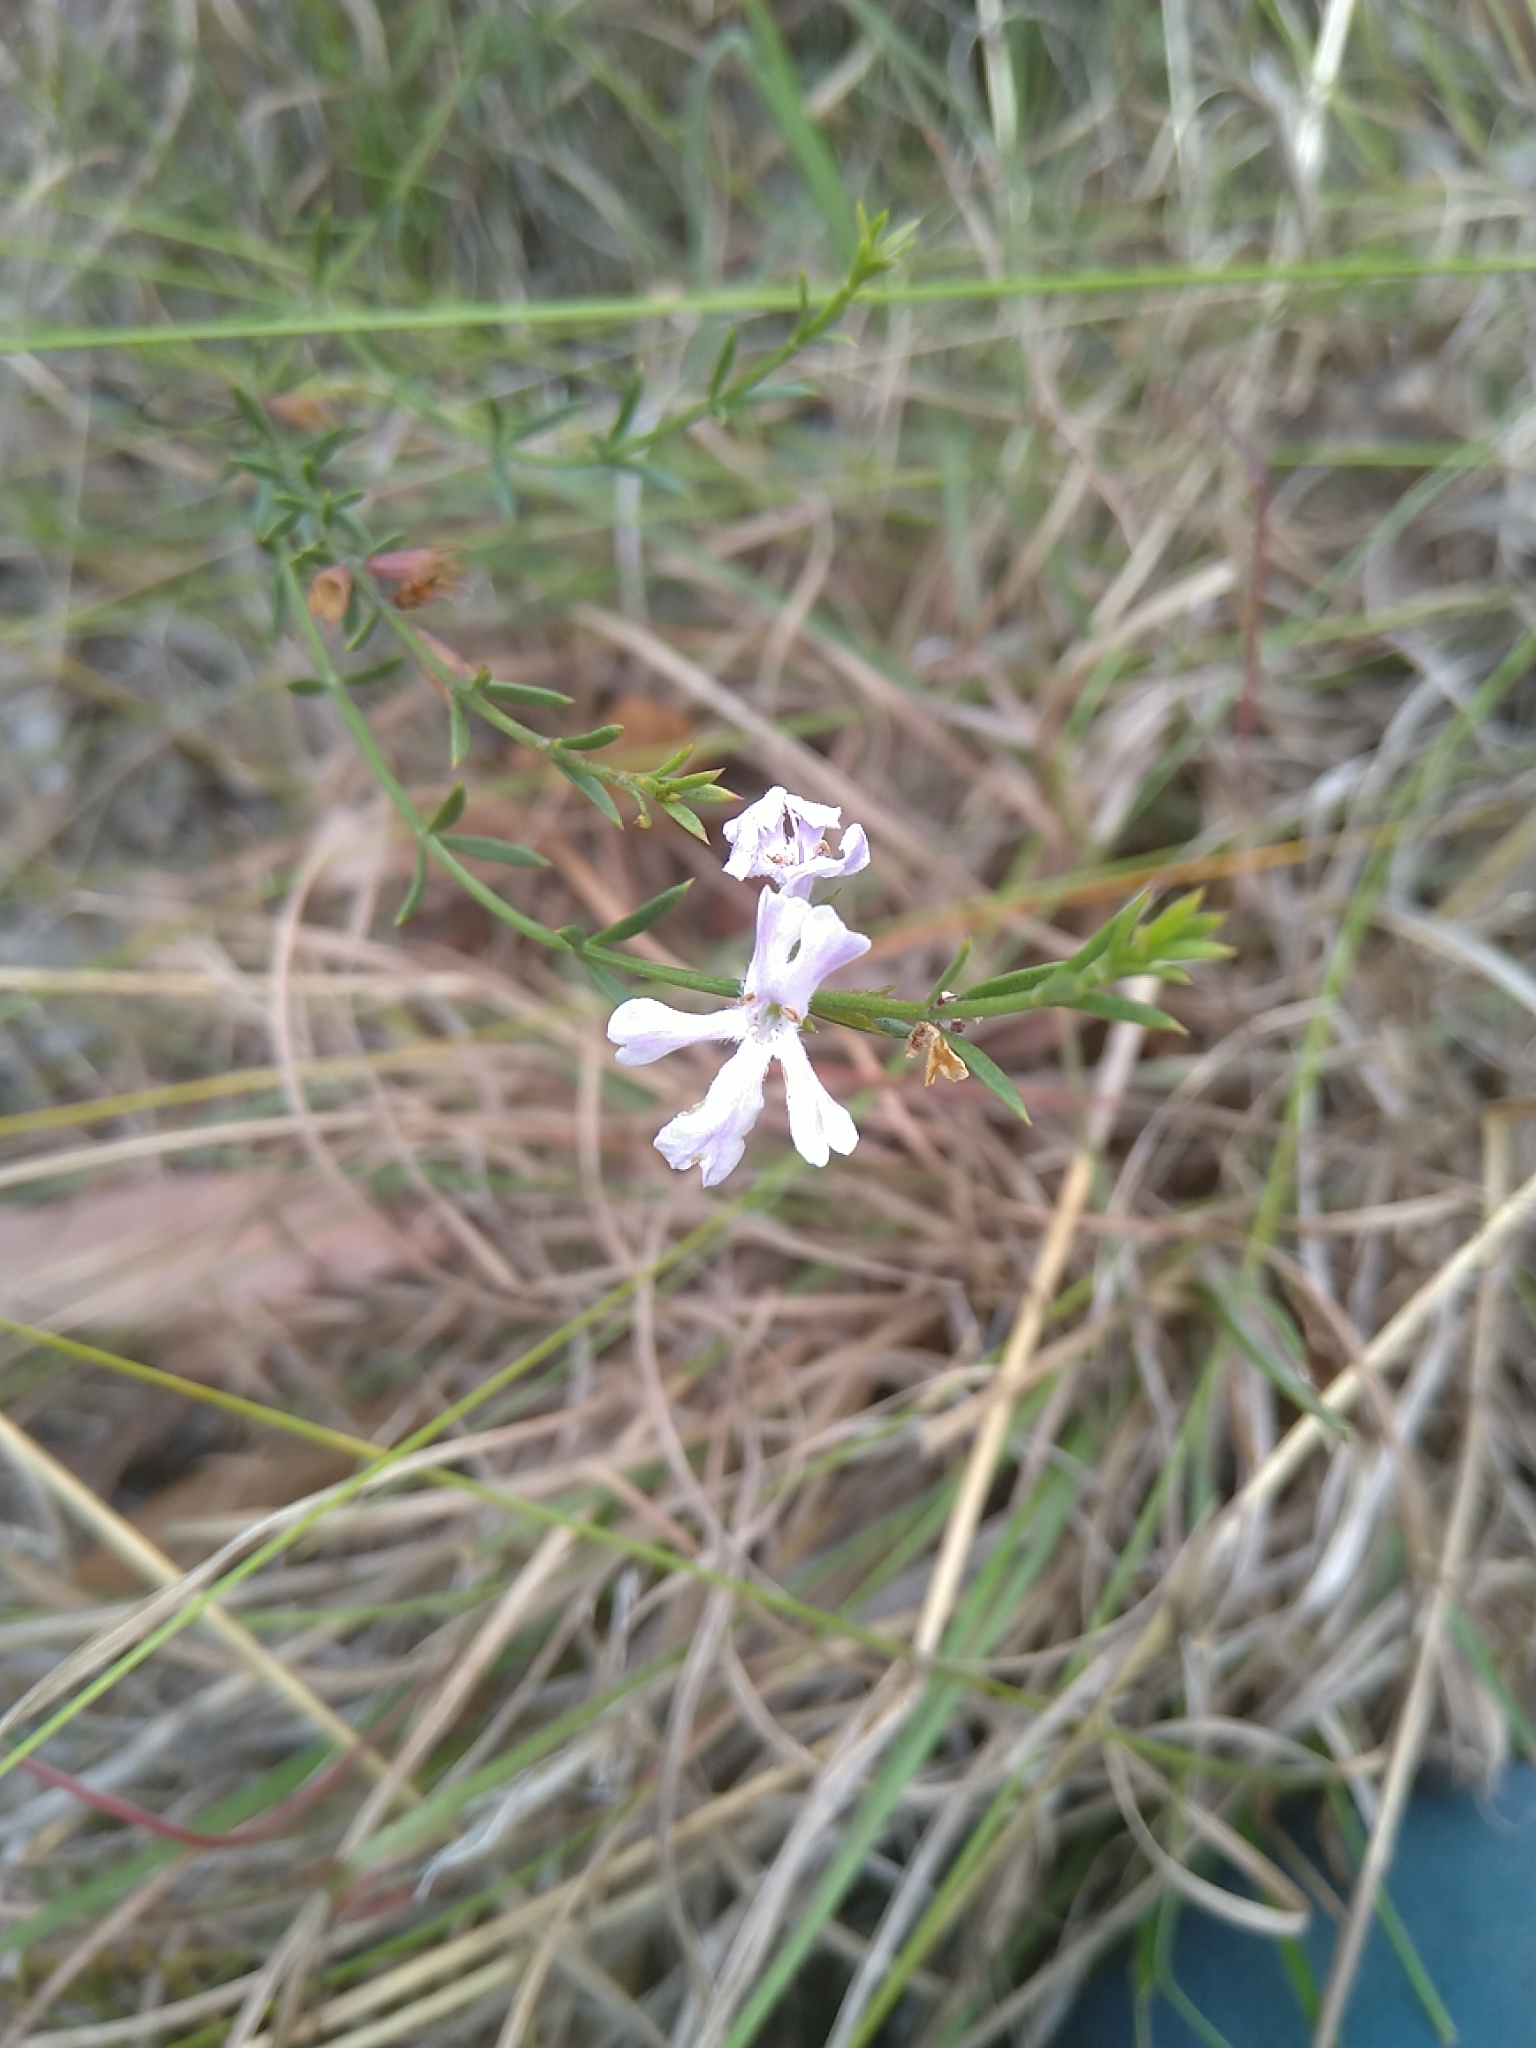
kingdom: Plantae
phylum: Tracheophyta
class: Magnoliopsida
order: Lamiales
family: Lamiaceae
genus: Westringia
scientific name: Westringia tenuicaulis
